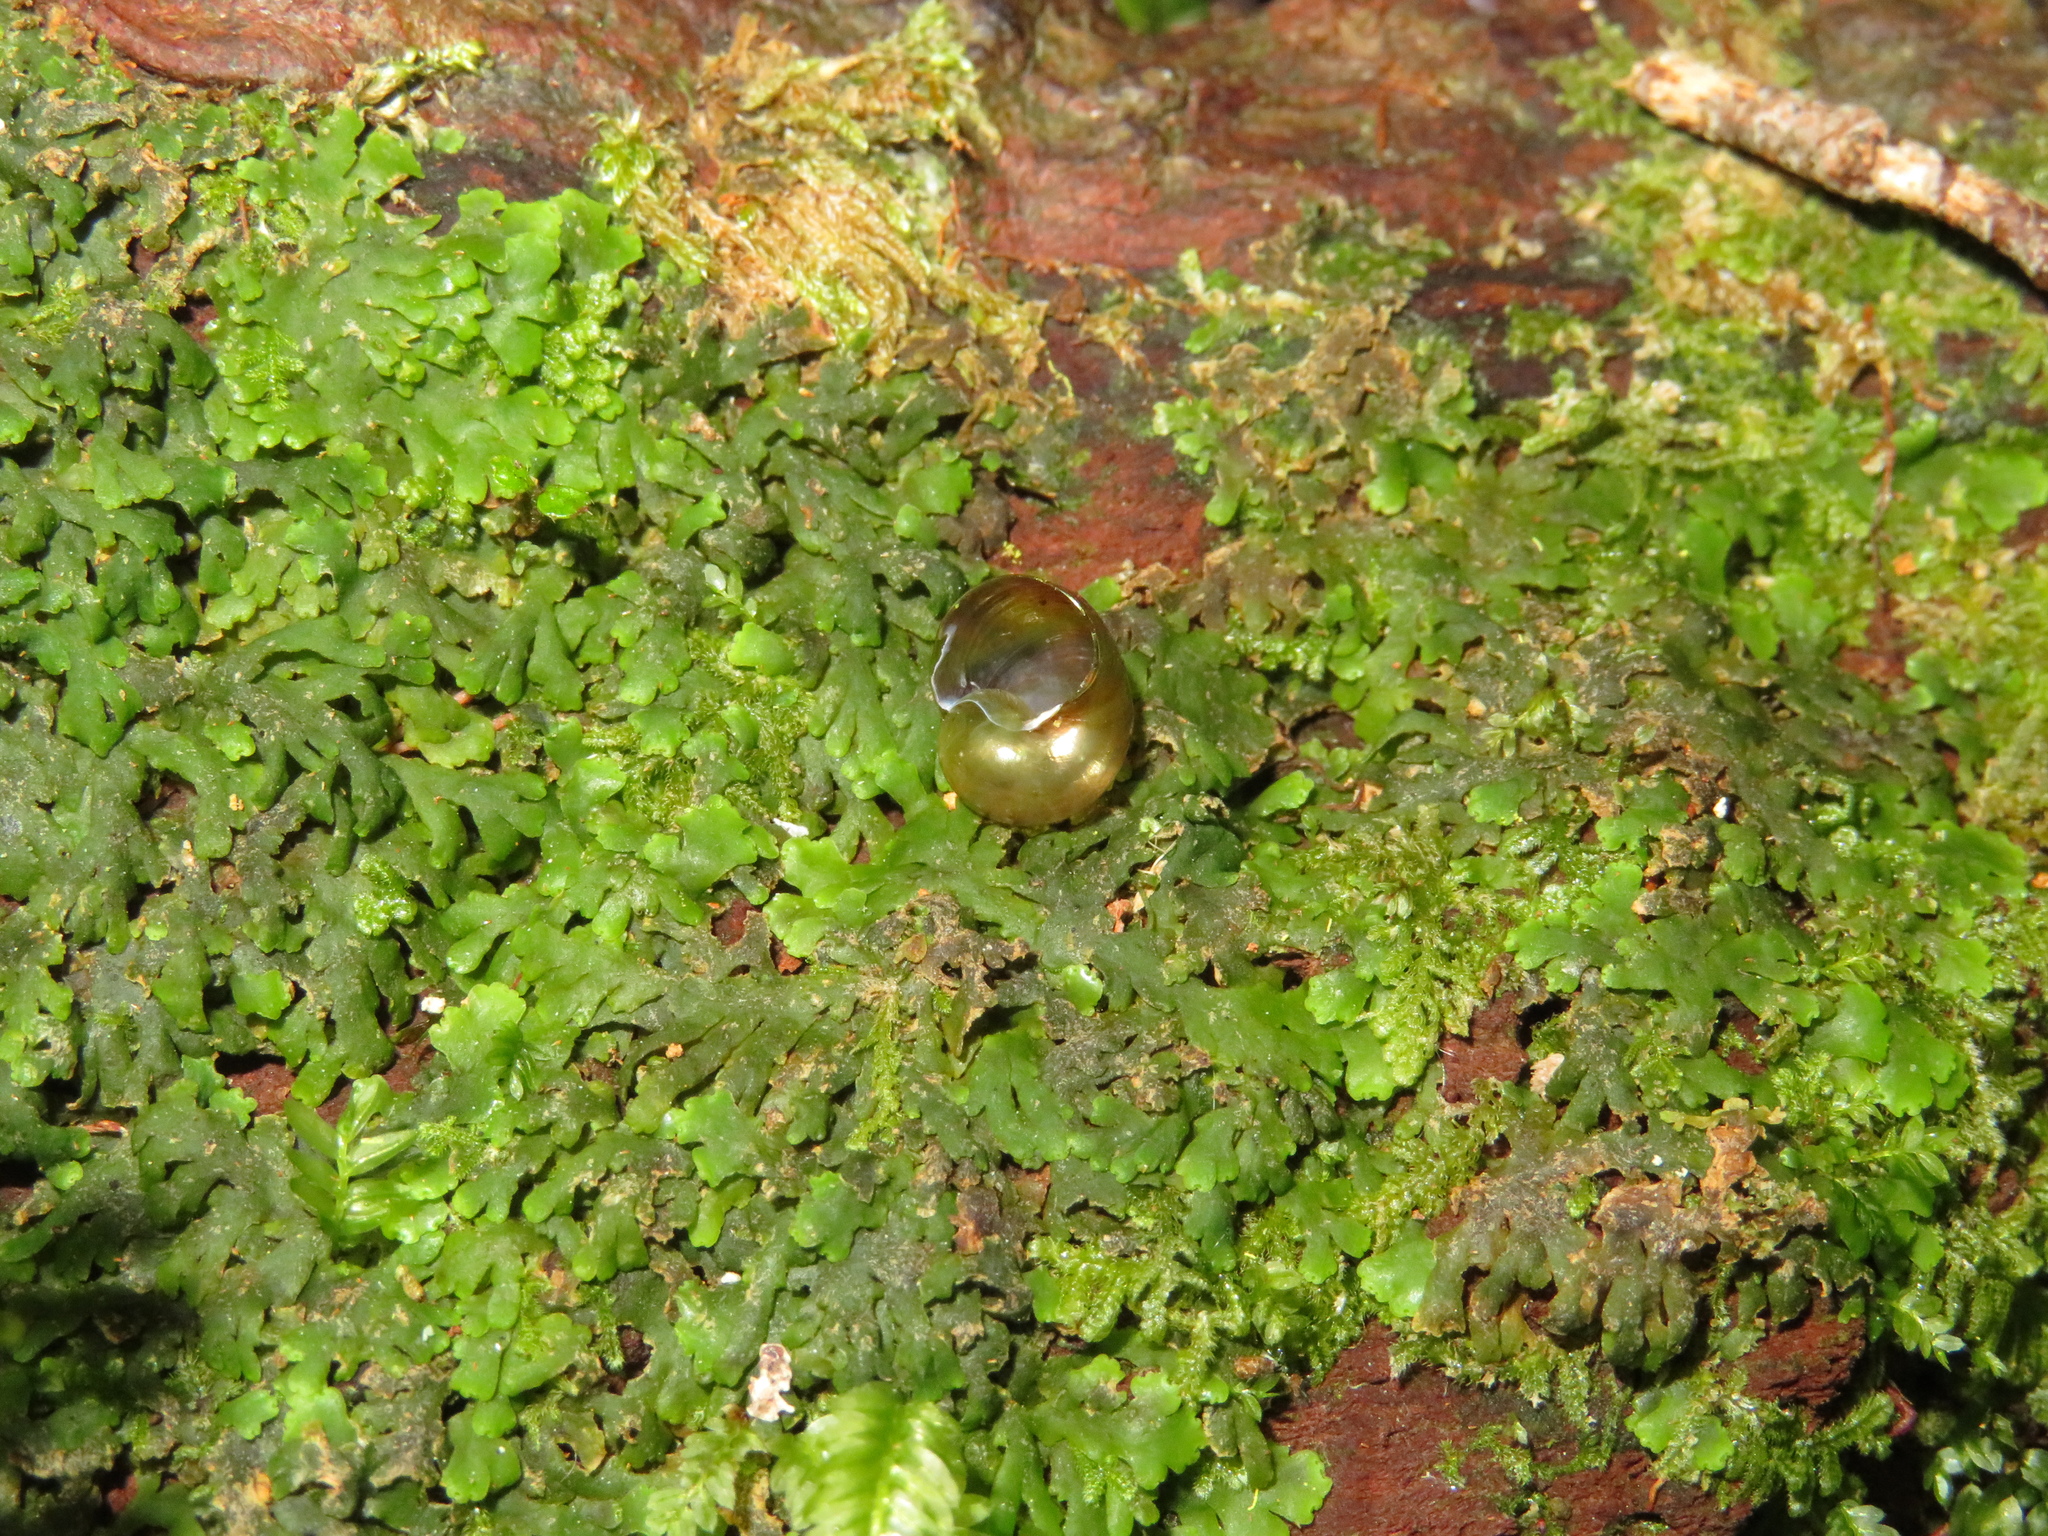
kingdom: Animalia
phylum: Mollusca
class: Gastropoda
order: Stylommatophora
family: Rhytididae
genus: Wainuia
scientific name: Wainuia urnula
